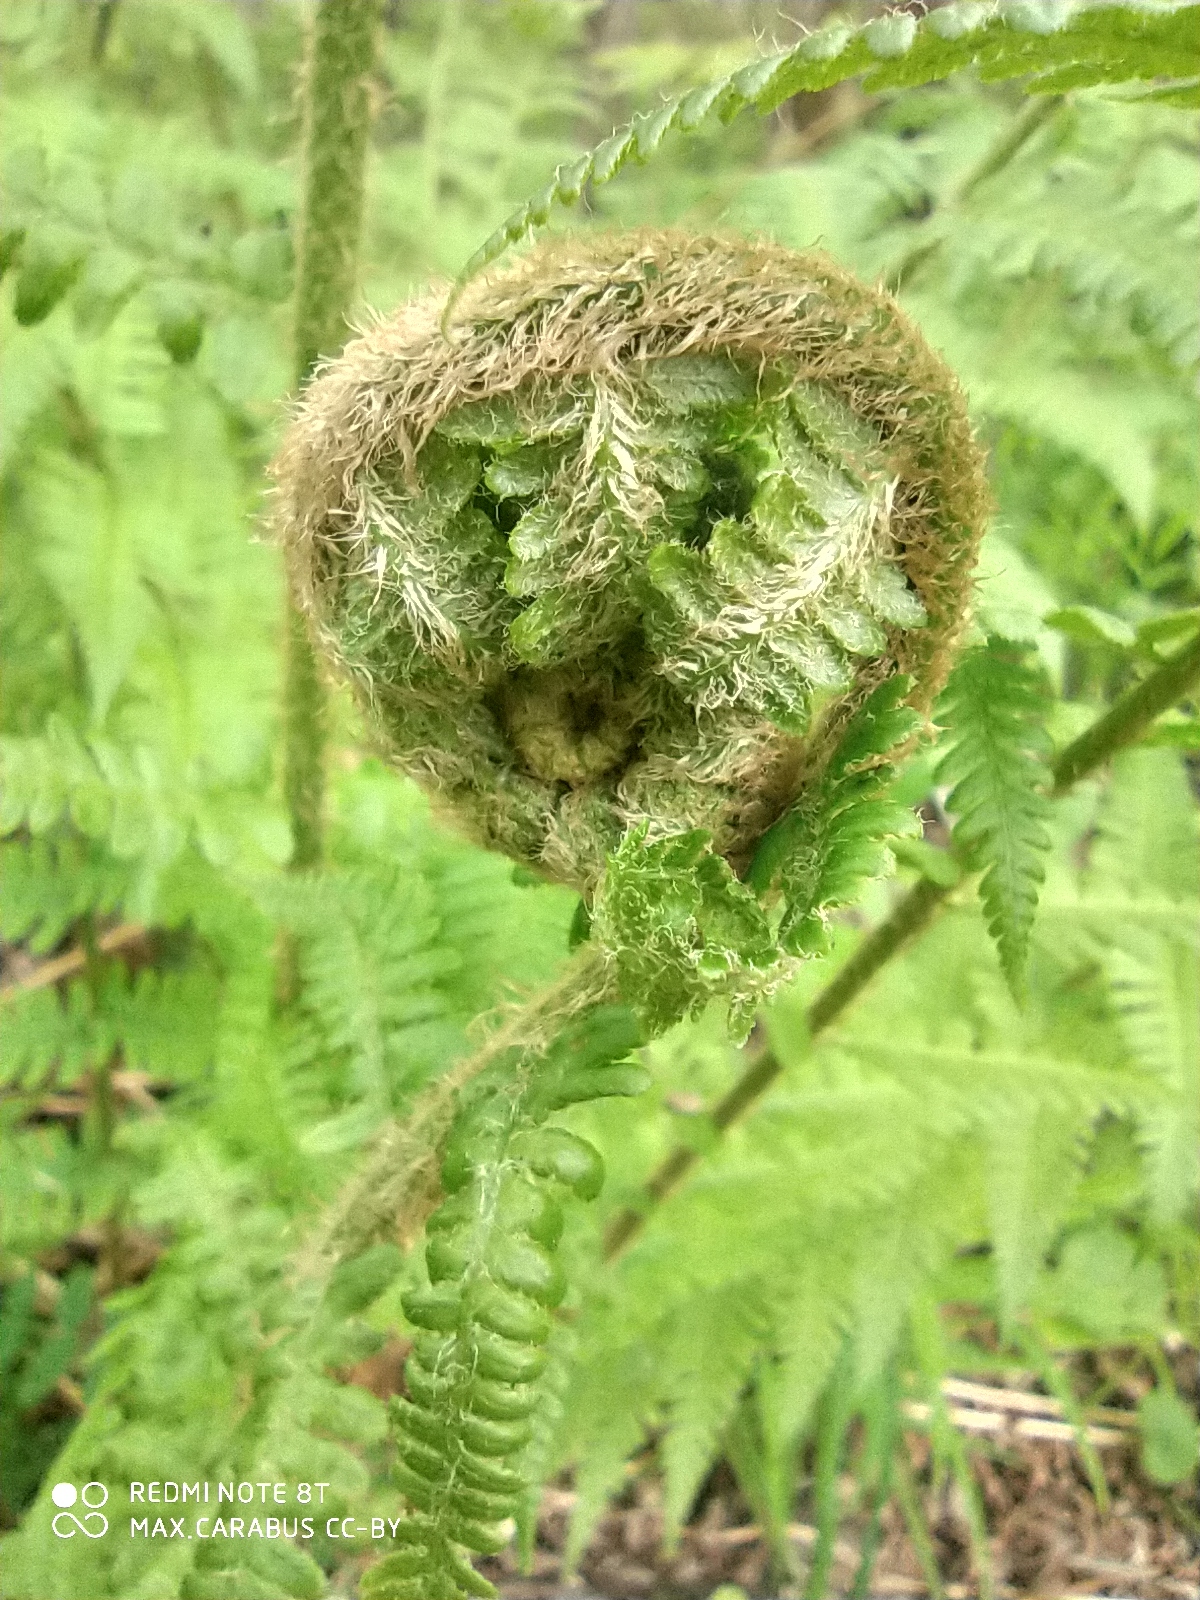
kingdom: Plantae
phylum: Tracheophyta
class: Polypodiopsida
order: Polypodiales
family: Dryopteridaceae
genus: Dryopteris
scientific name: Dryopteris filix-mas
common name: Male fern
